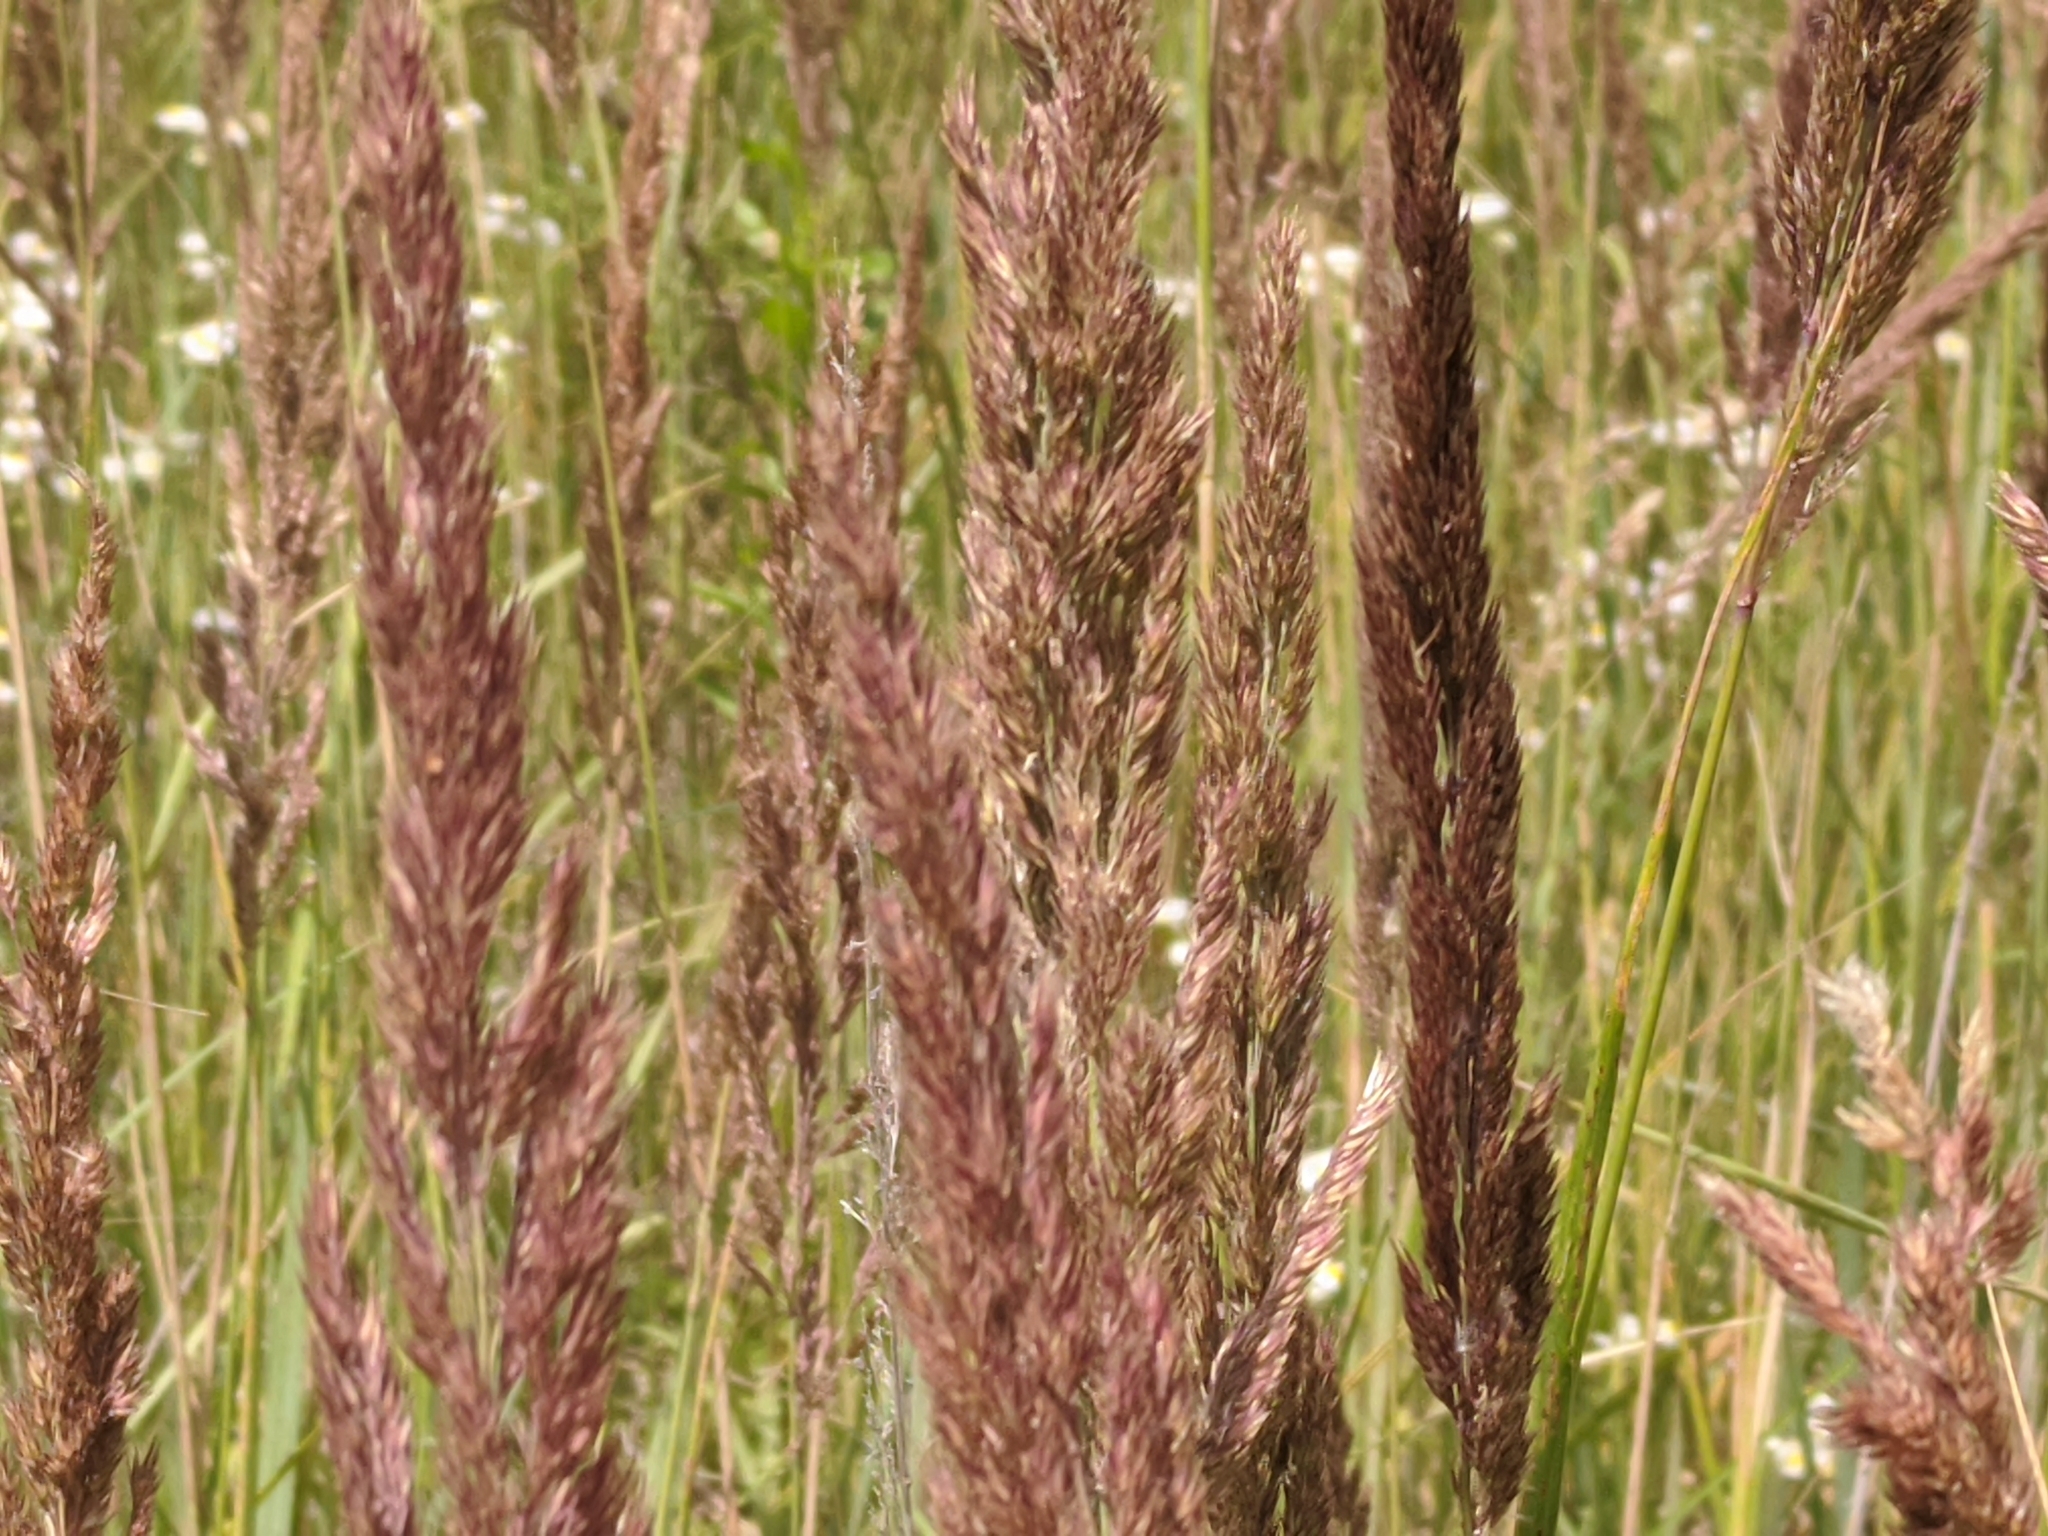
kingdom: Plantae
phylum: Tracheophyta
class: Liliopsida
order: Poales
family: Poaceae
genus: Calamagrostis
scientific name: Calamagrostis epigejos
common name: Wood small-reed
